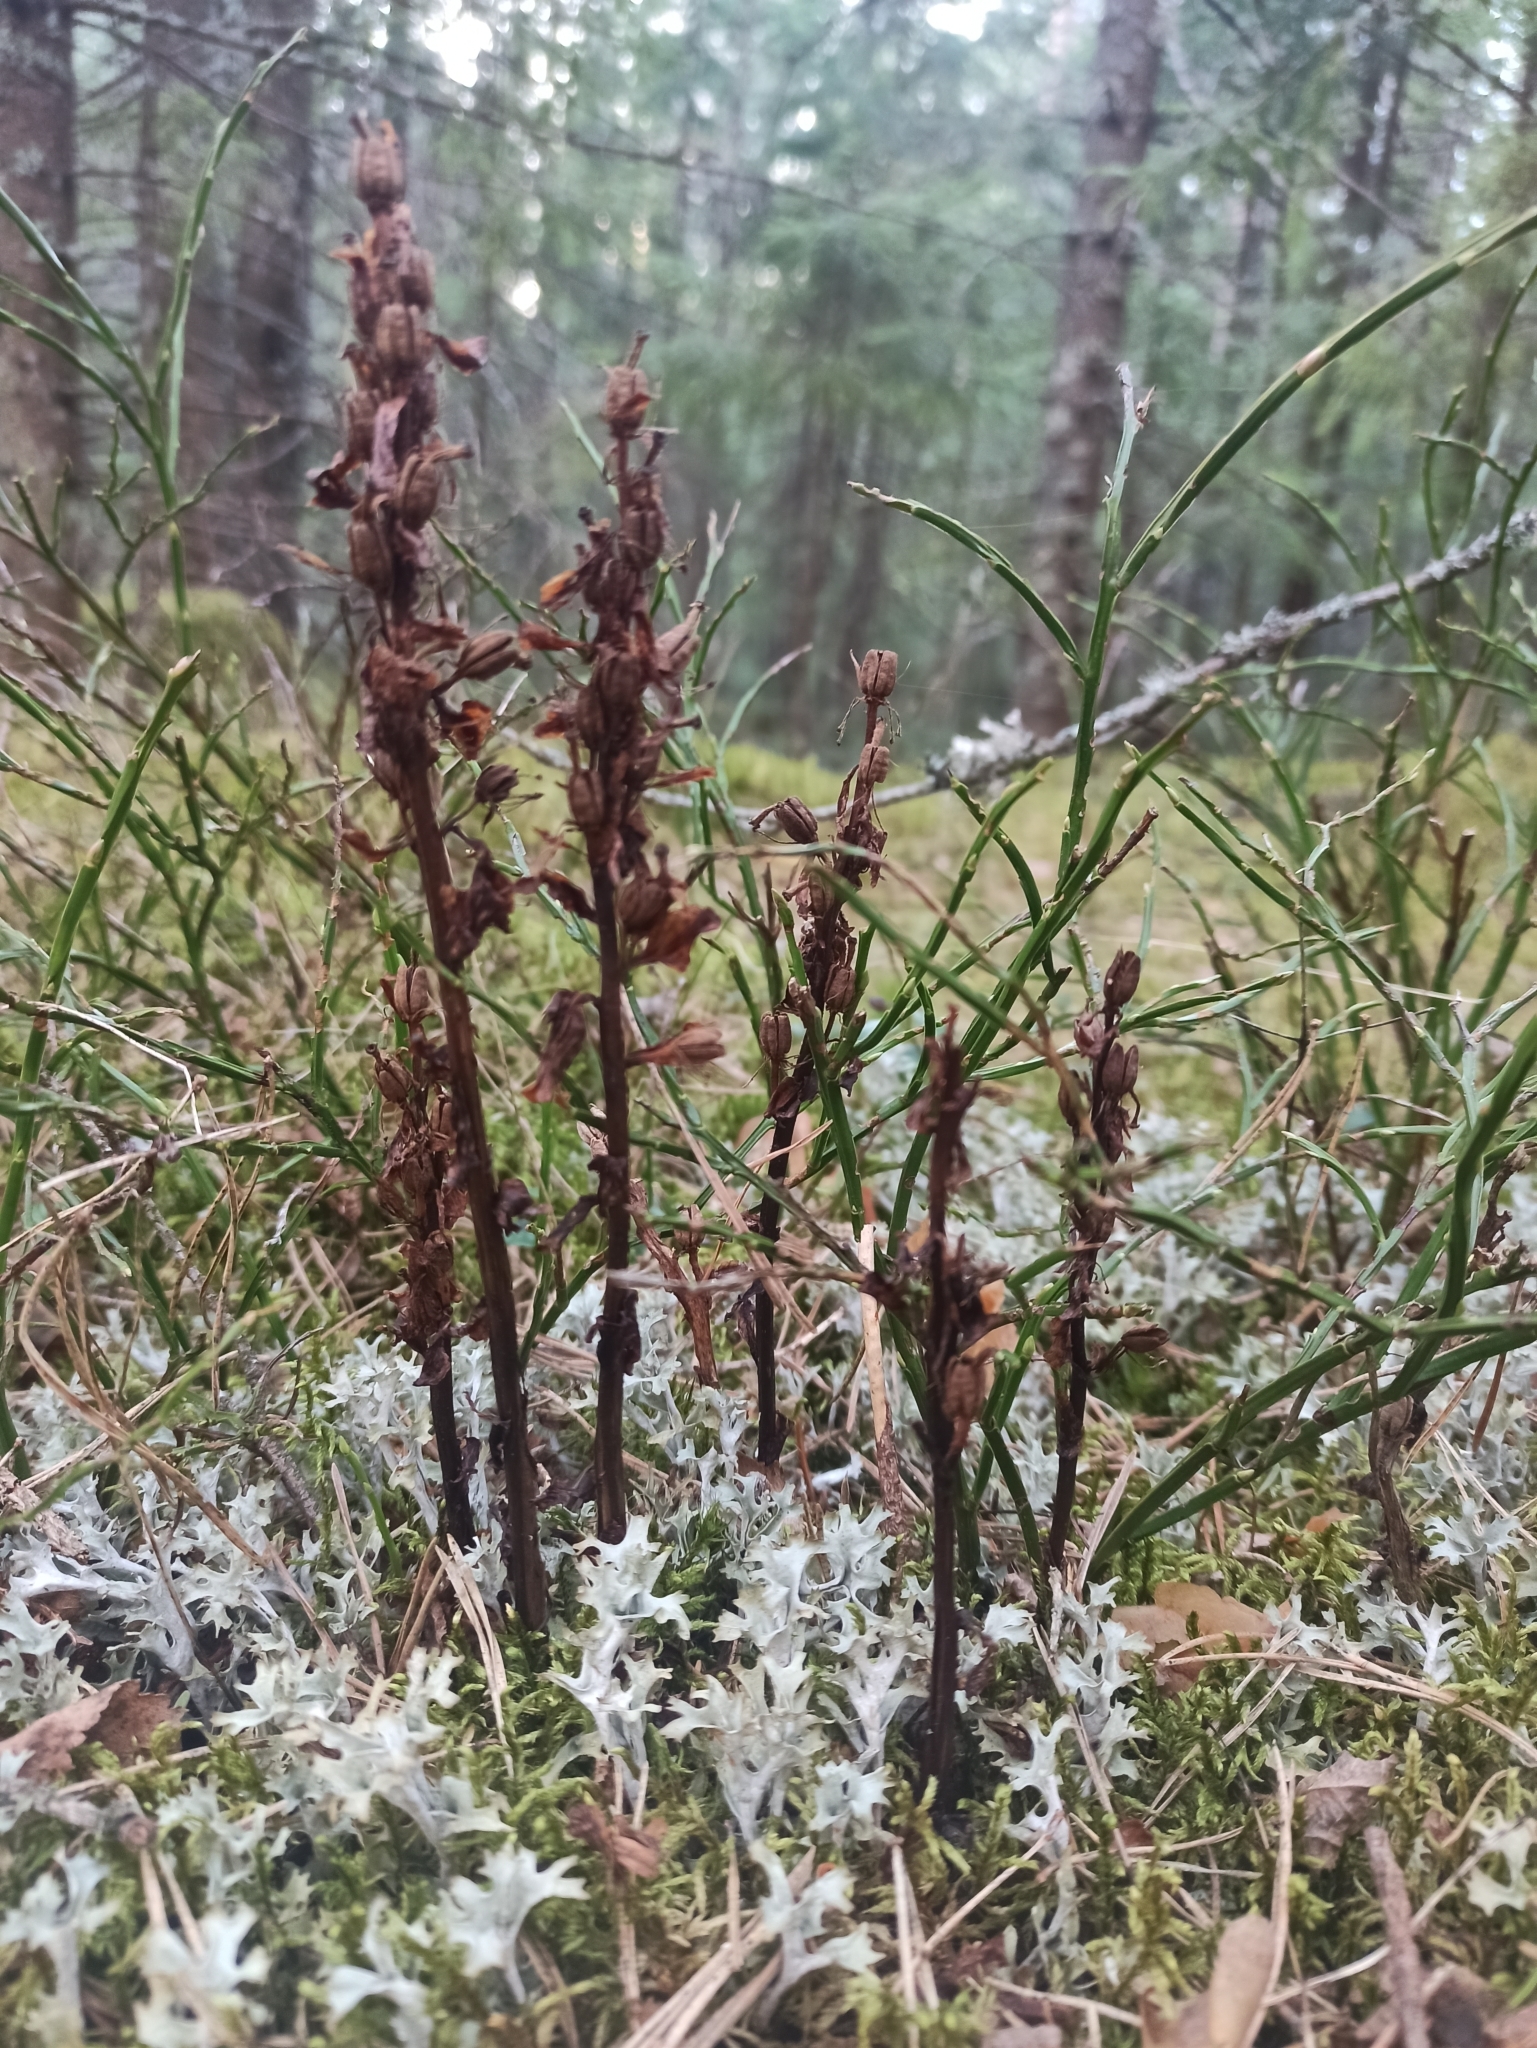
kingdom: Plantae
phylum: Tracheophyta
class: Magnoliopsida
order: Ericales
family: Ericaceae
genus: Hypopitys
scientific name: Hypopitys monotropa
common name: Yellow bird's-nest
